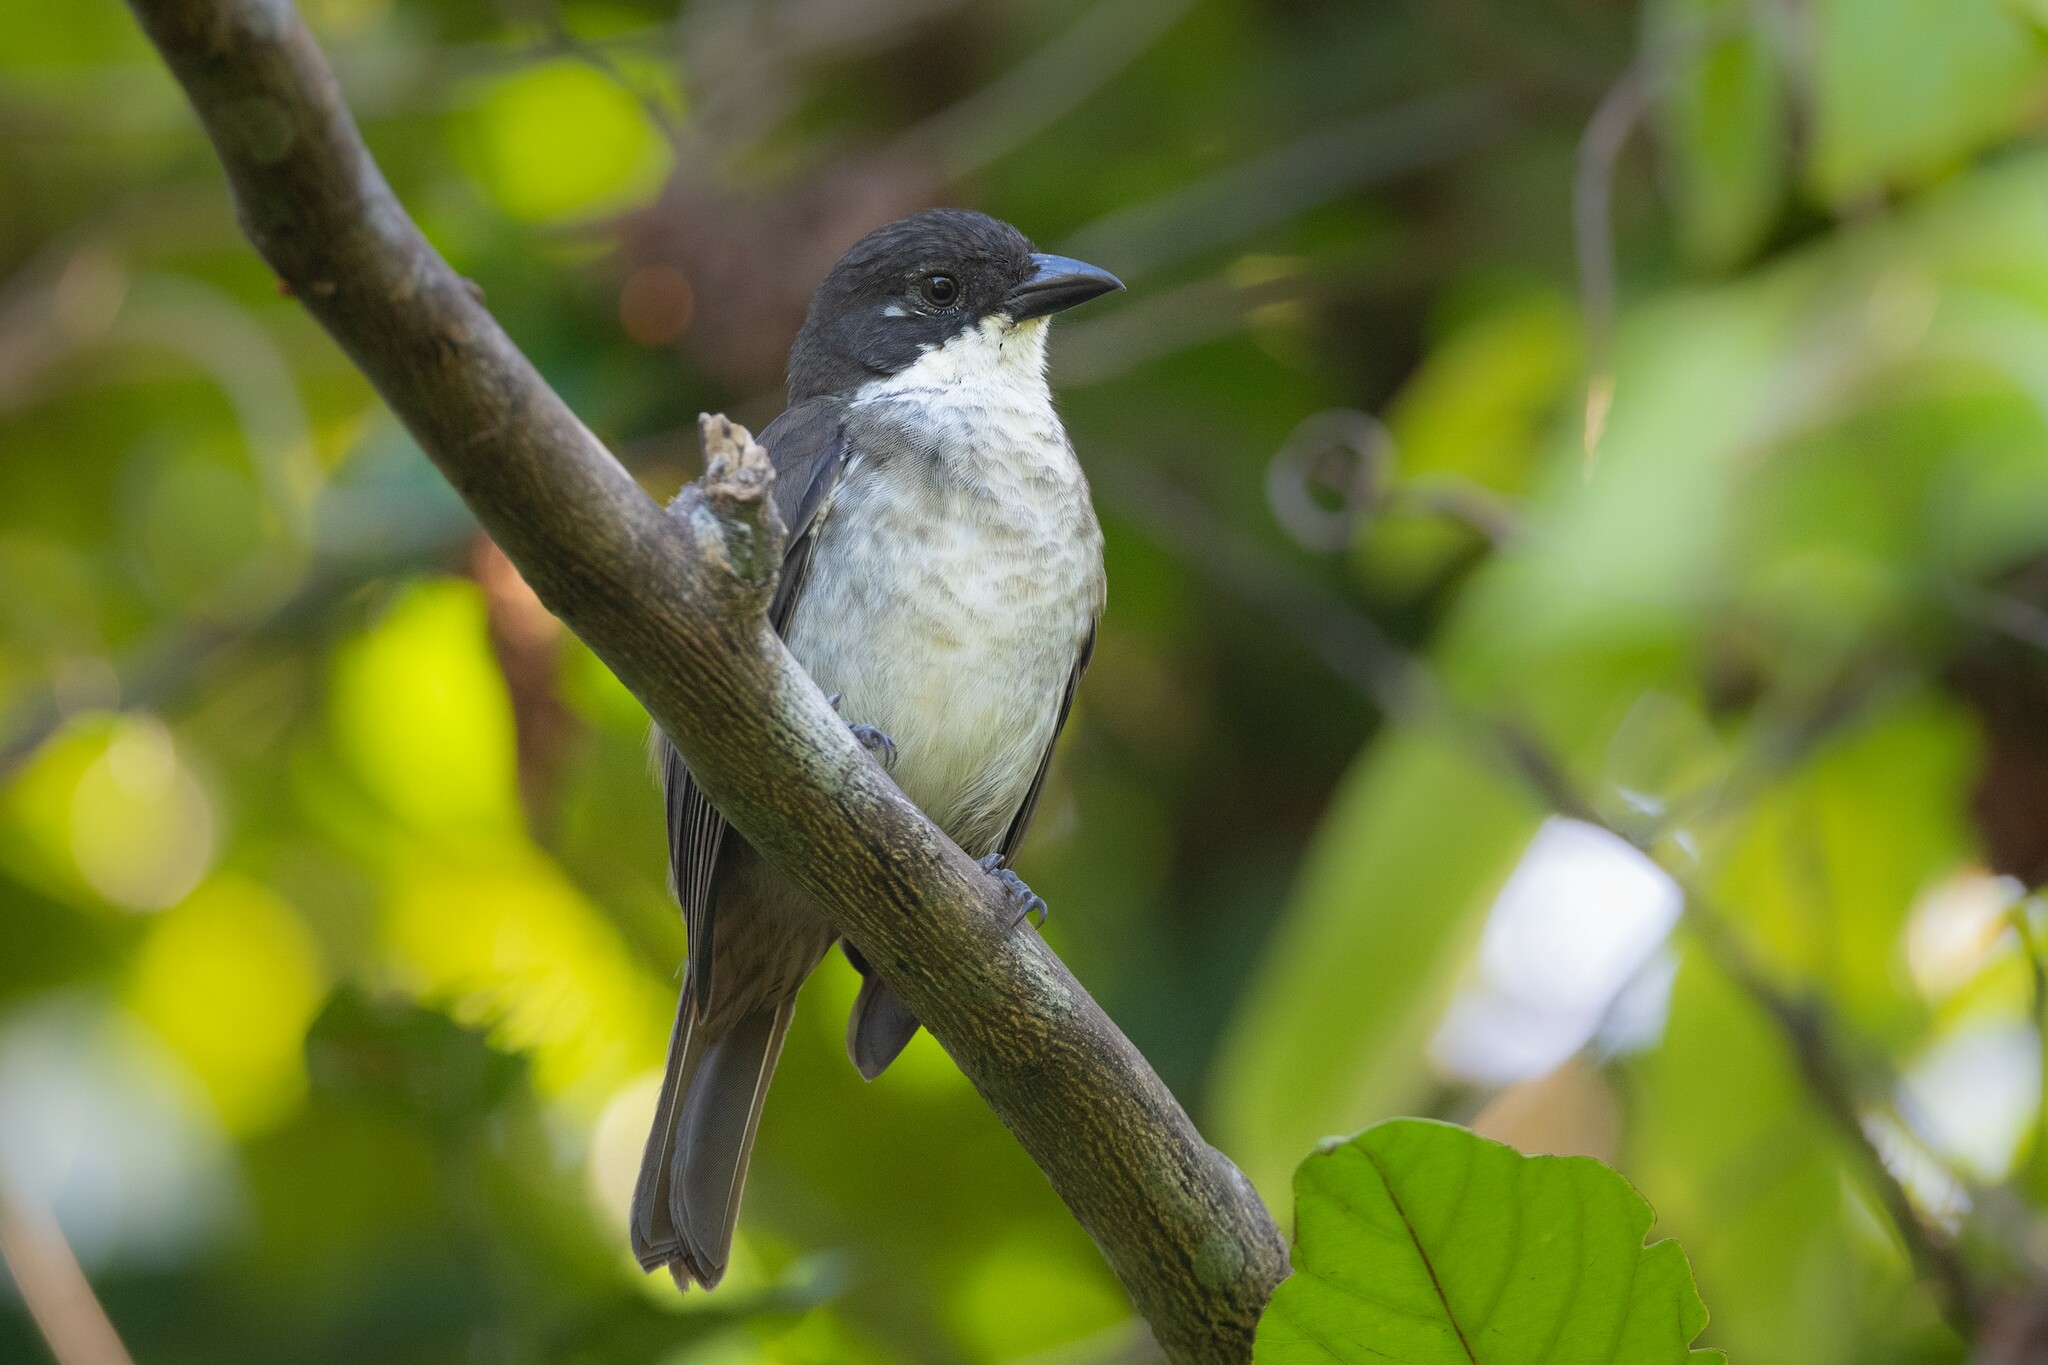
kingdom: Animalia
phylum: Chordata
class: Aves
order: Passeriformes
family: Nesospingidae
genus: Nesospingus
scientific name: Nesospingus speculiferus
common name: Puerto rican tanager
